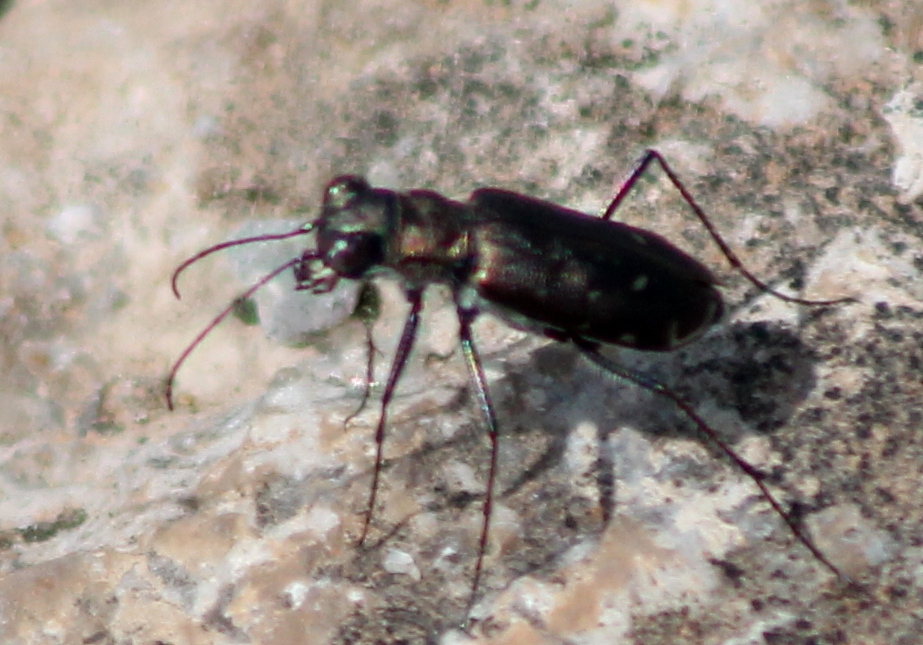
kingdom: Animalia
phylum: Arthropoda
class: Insecta
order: Coleoptera
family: Carabidae
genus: Cicindela
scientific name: Cicindela punctulata
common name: Punctured tiger beetle
